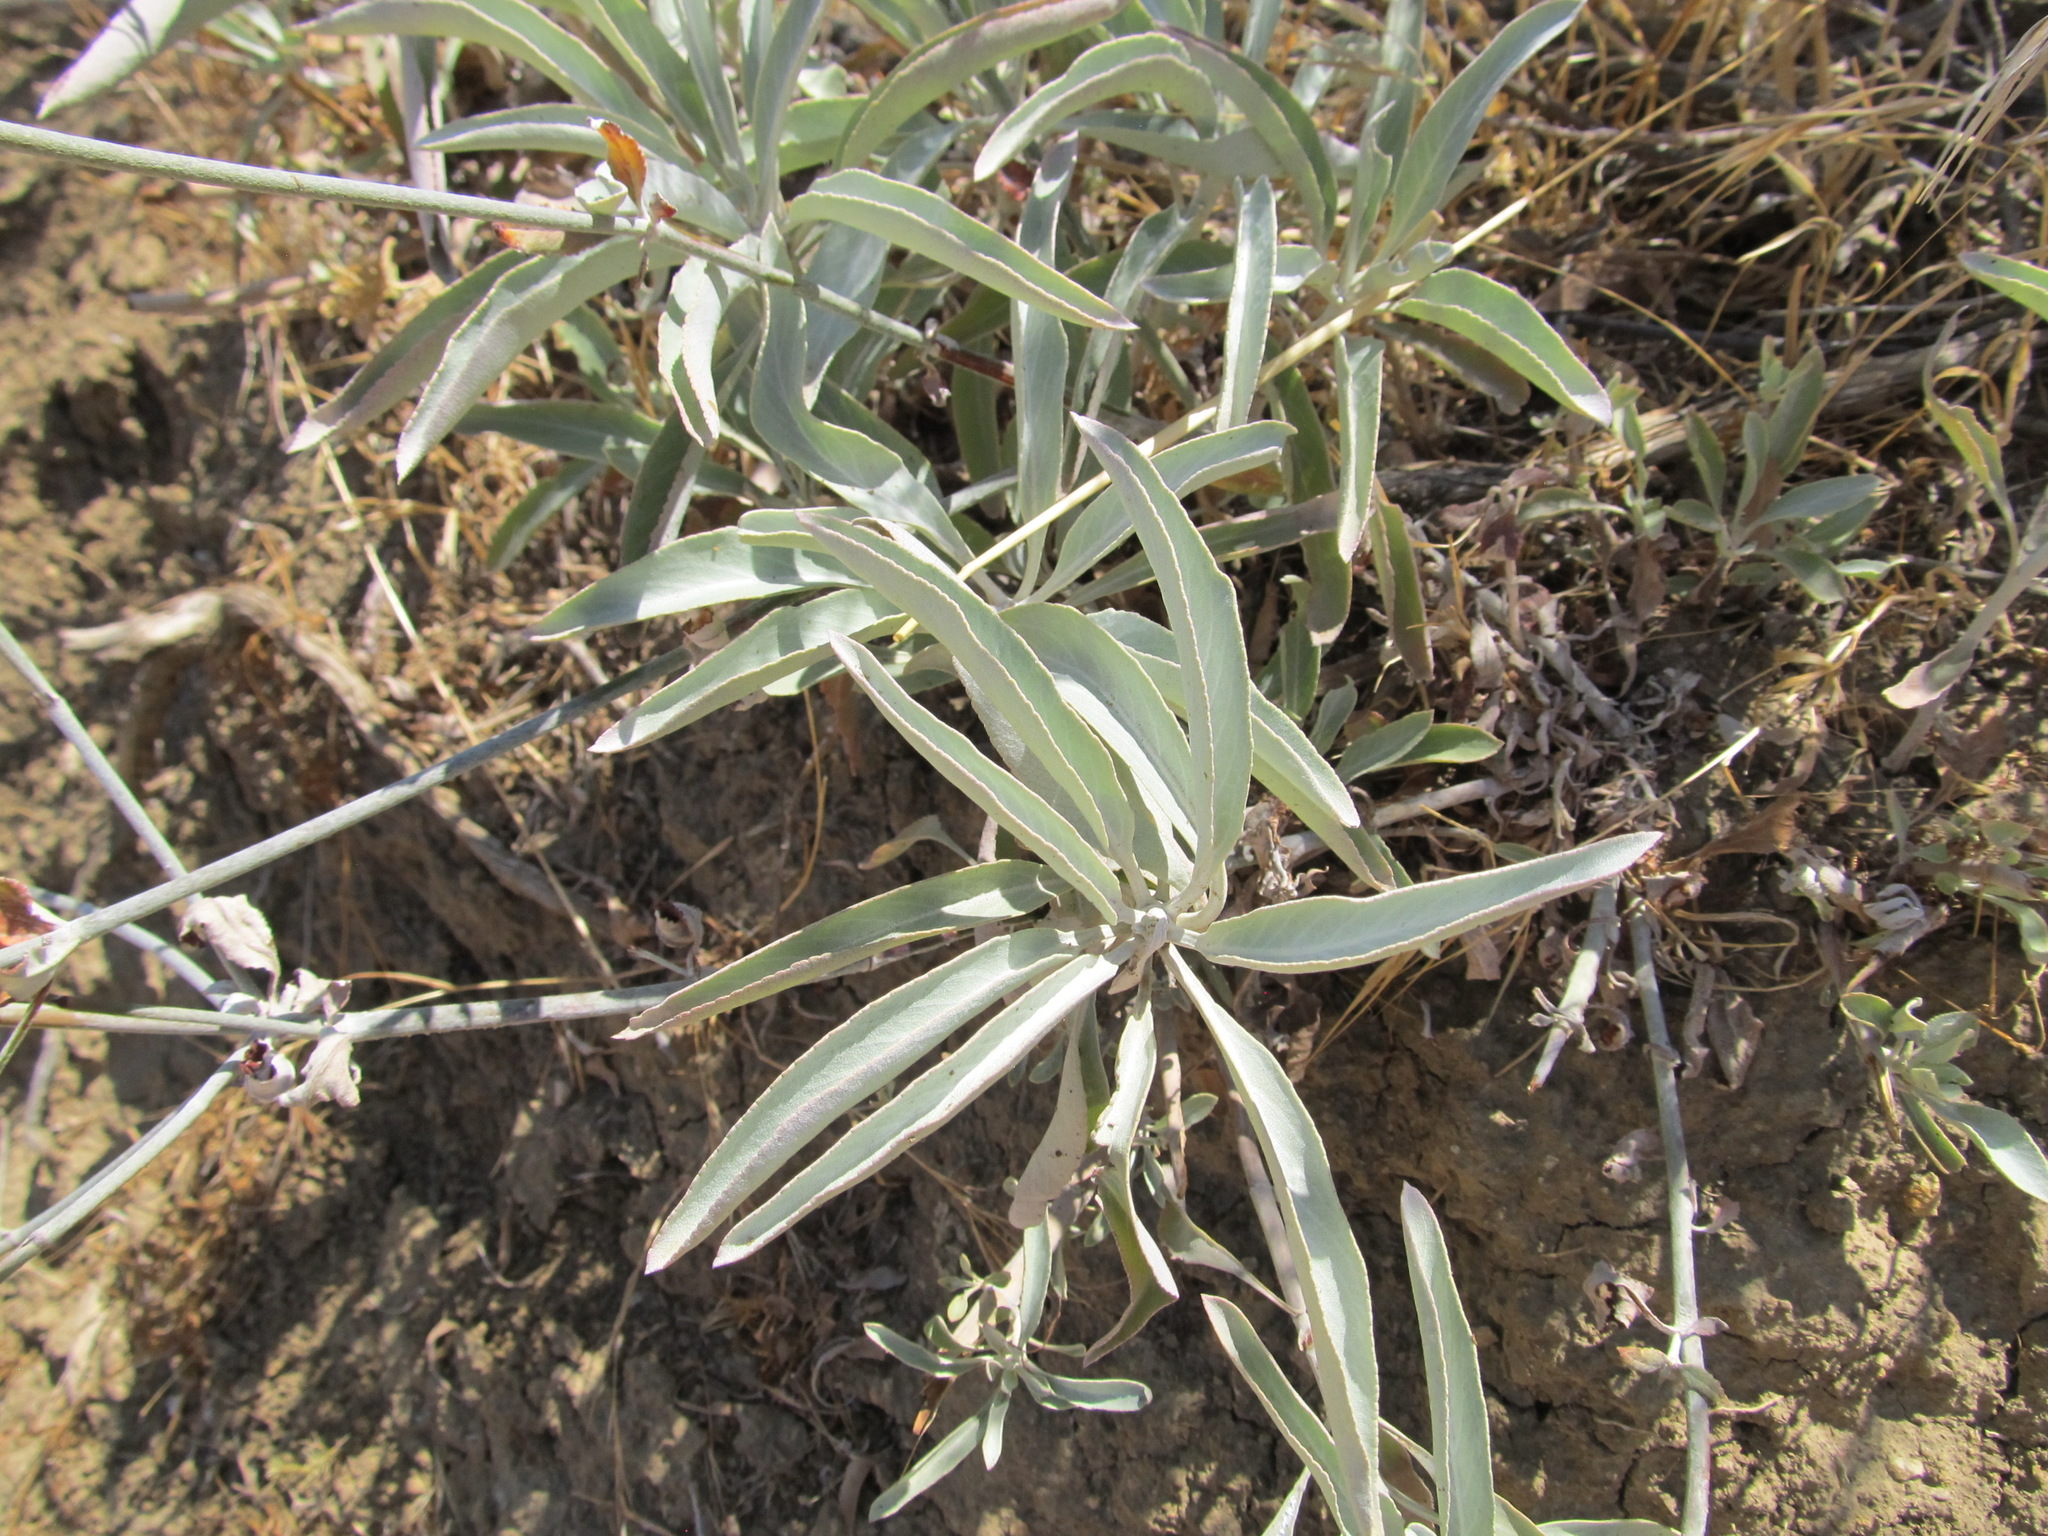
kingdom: Plantae
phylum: Tracheophyta
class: Magnoliopsida
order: Lamiales
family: Lamiaceae
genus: Salvia
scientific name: Salvia apiana
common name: White sage
